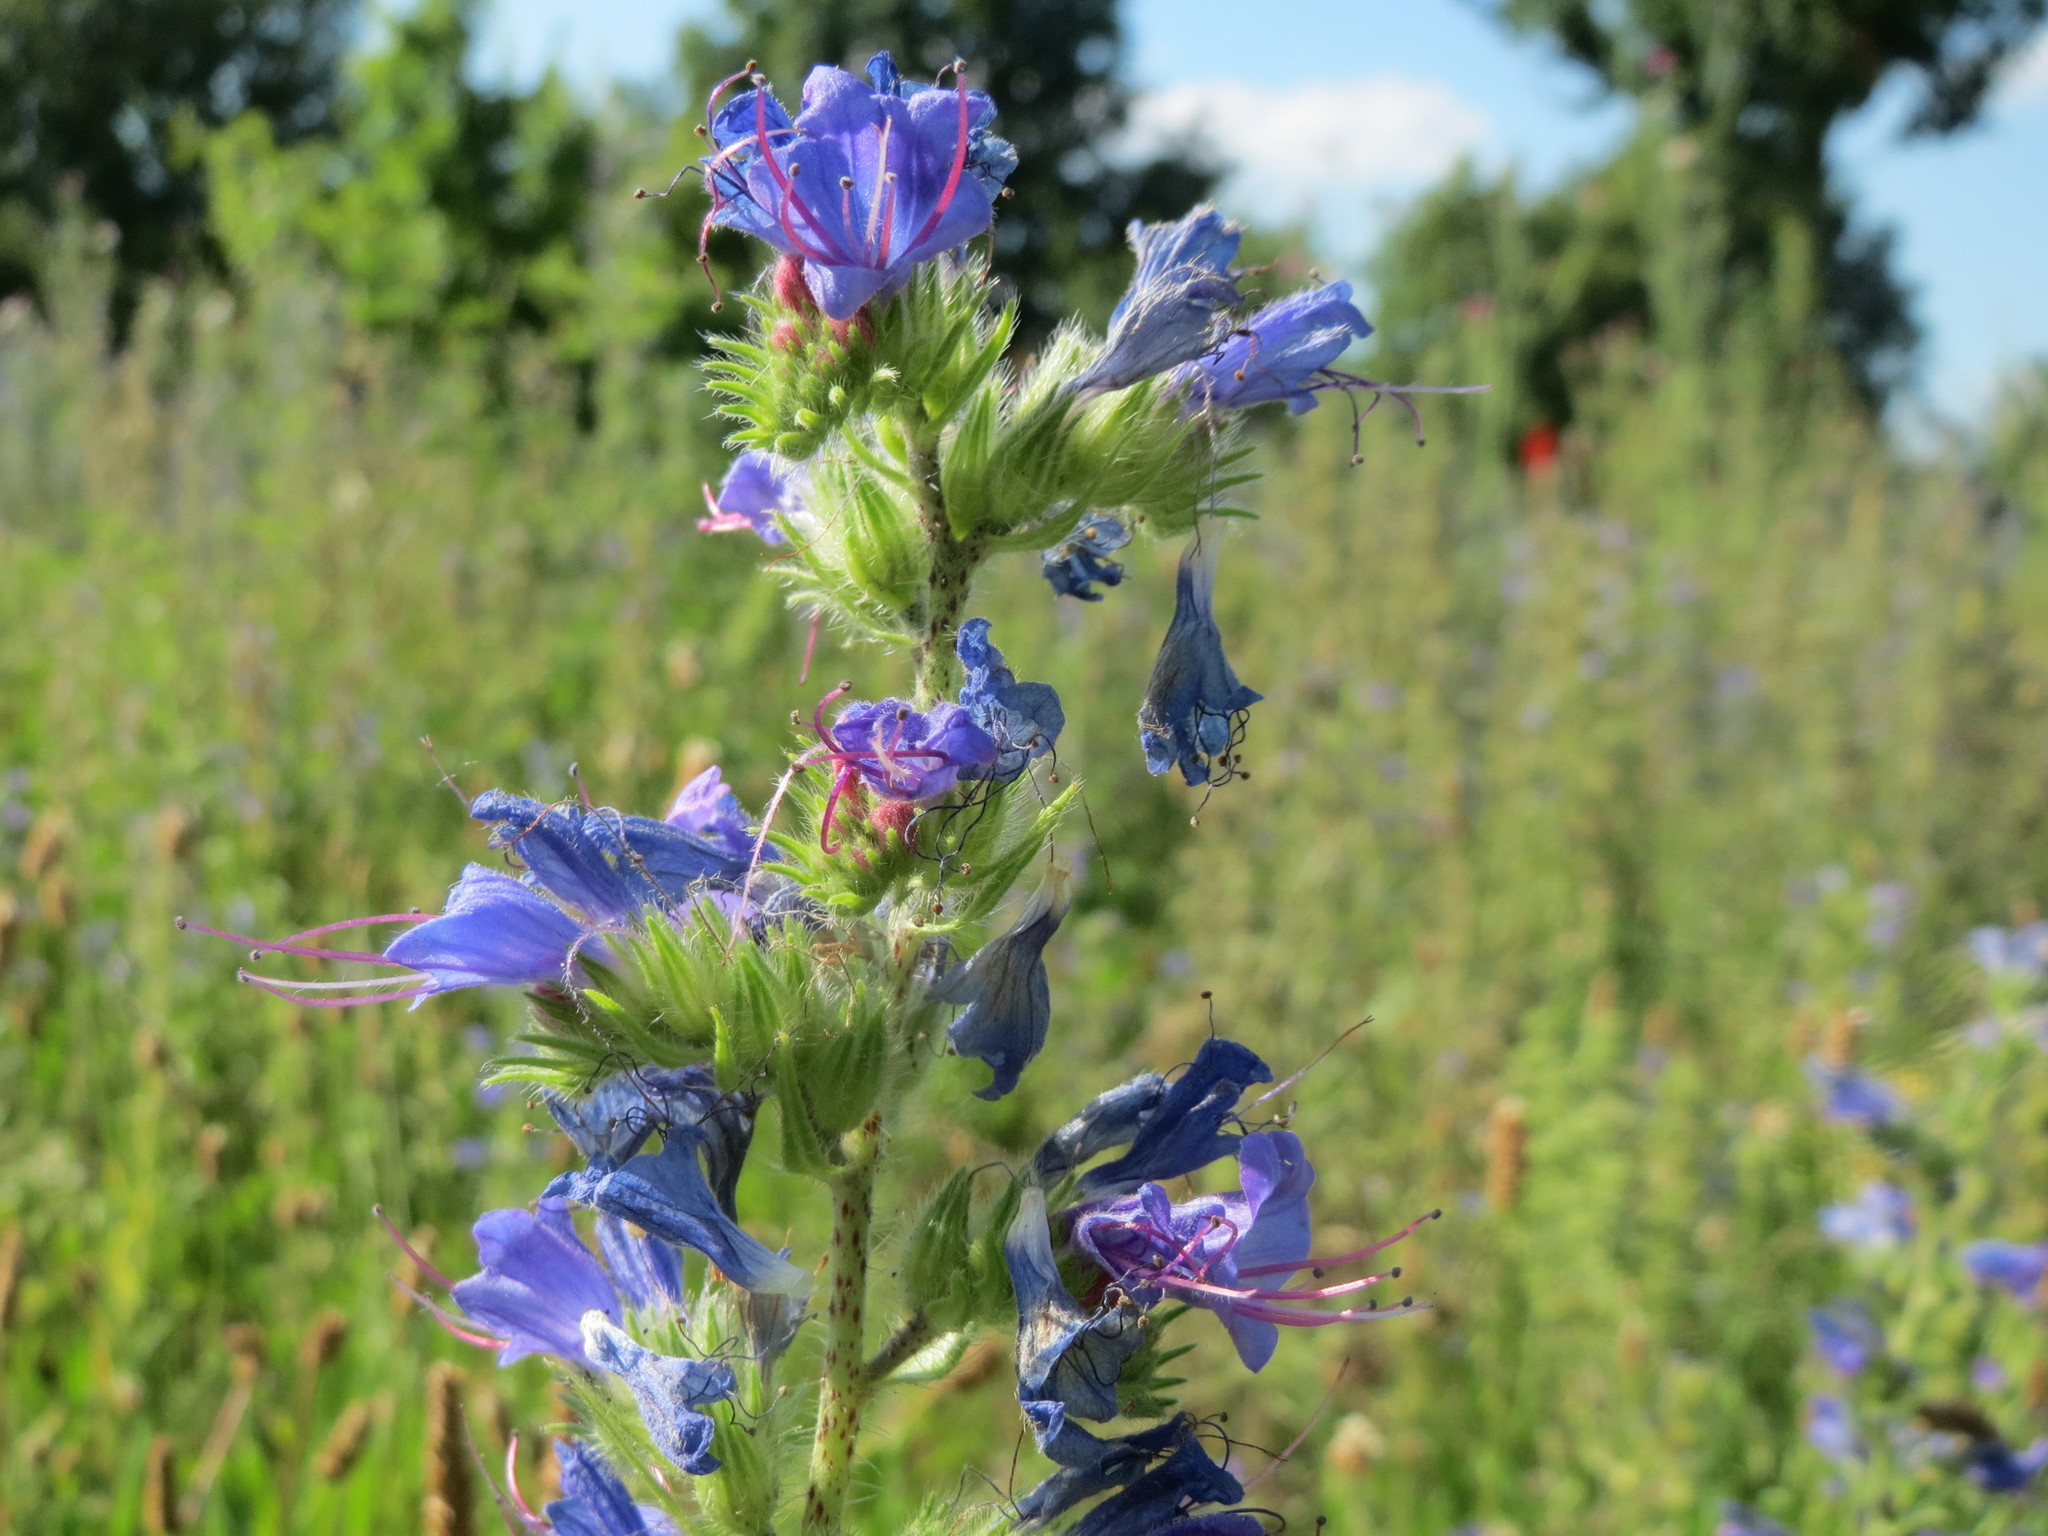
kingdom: Plantae
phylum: Tracheophyta
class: Magnoliopsida
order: Boraginales
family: Boraginaceae
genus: Echium
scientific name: Echium vulgare
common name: Common viper's bugloss
